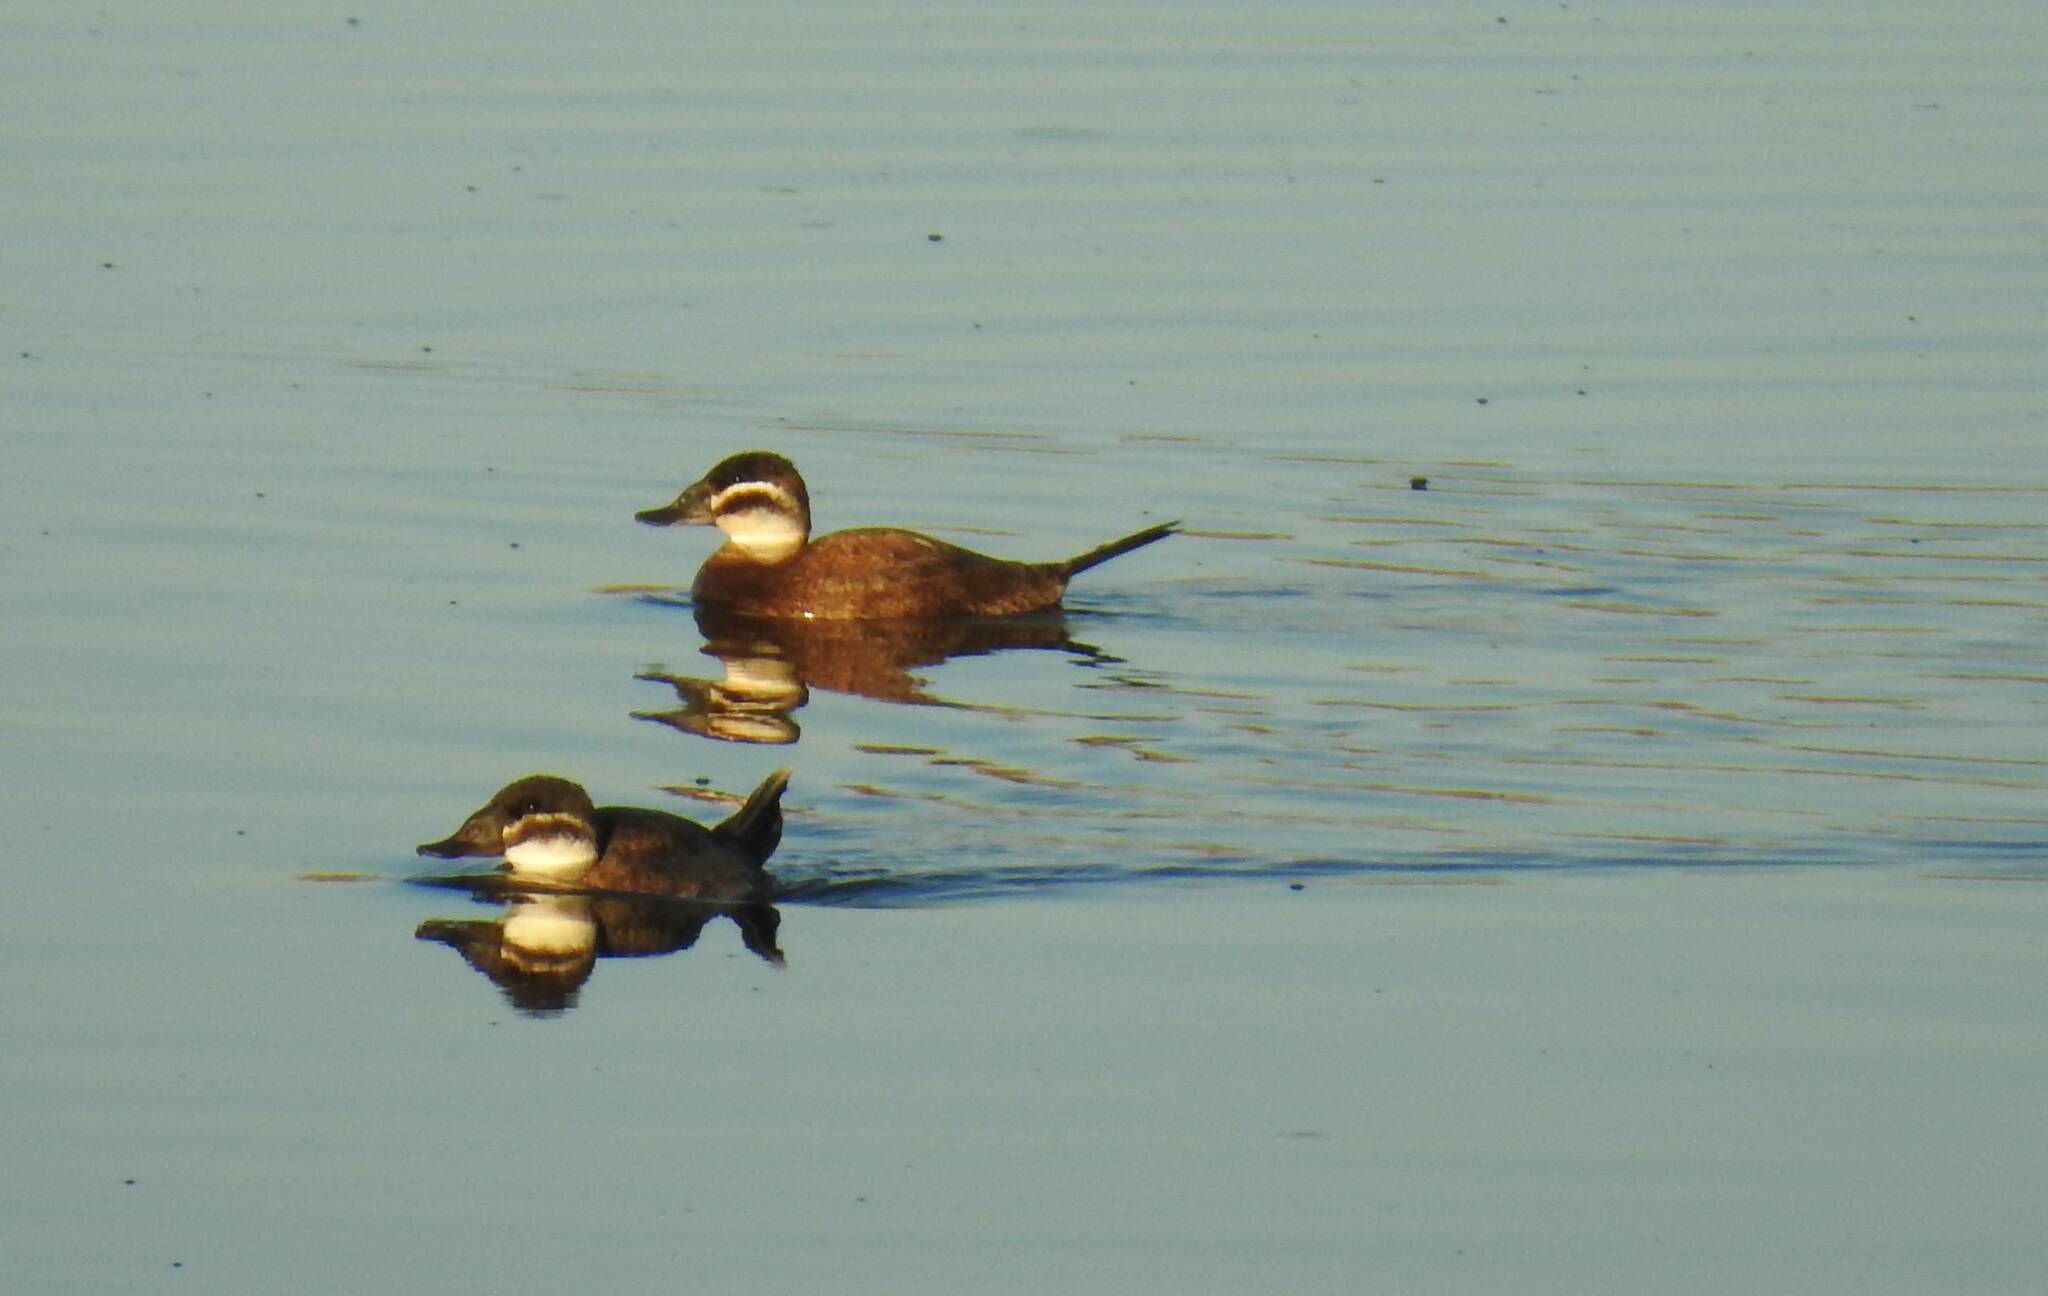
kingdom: Animalia
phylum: Chordata
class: Aves
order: Anseriformes
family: Anatidae
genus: Oxyura
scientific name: Oxyura leucocephala
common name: White-headed duck
